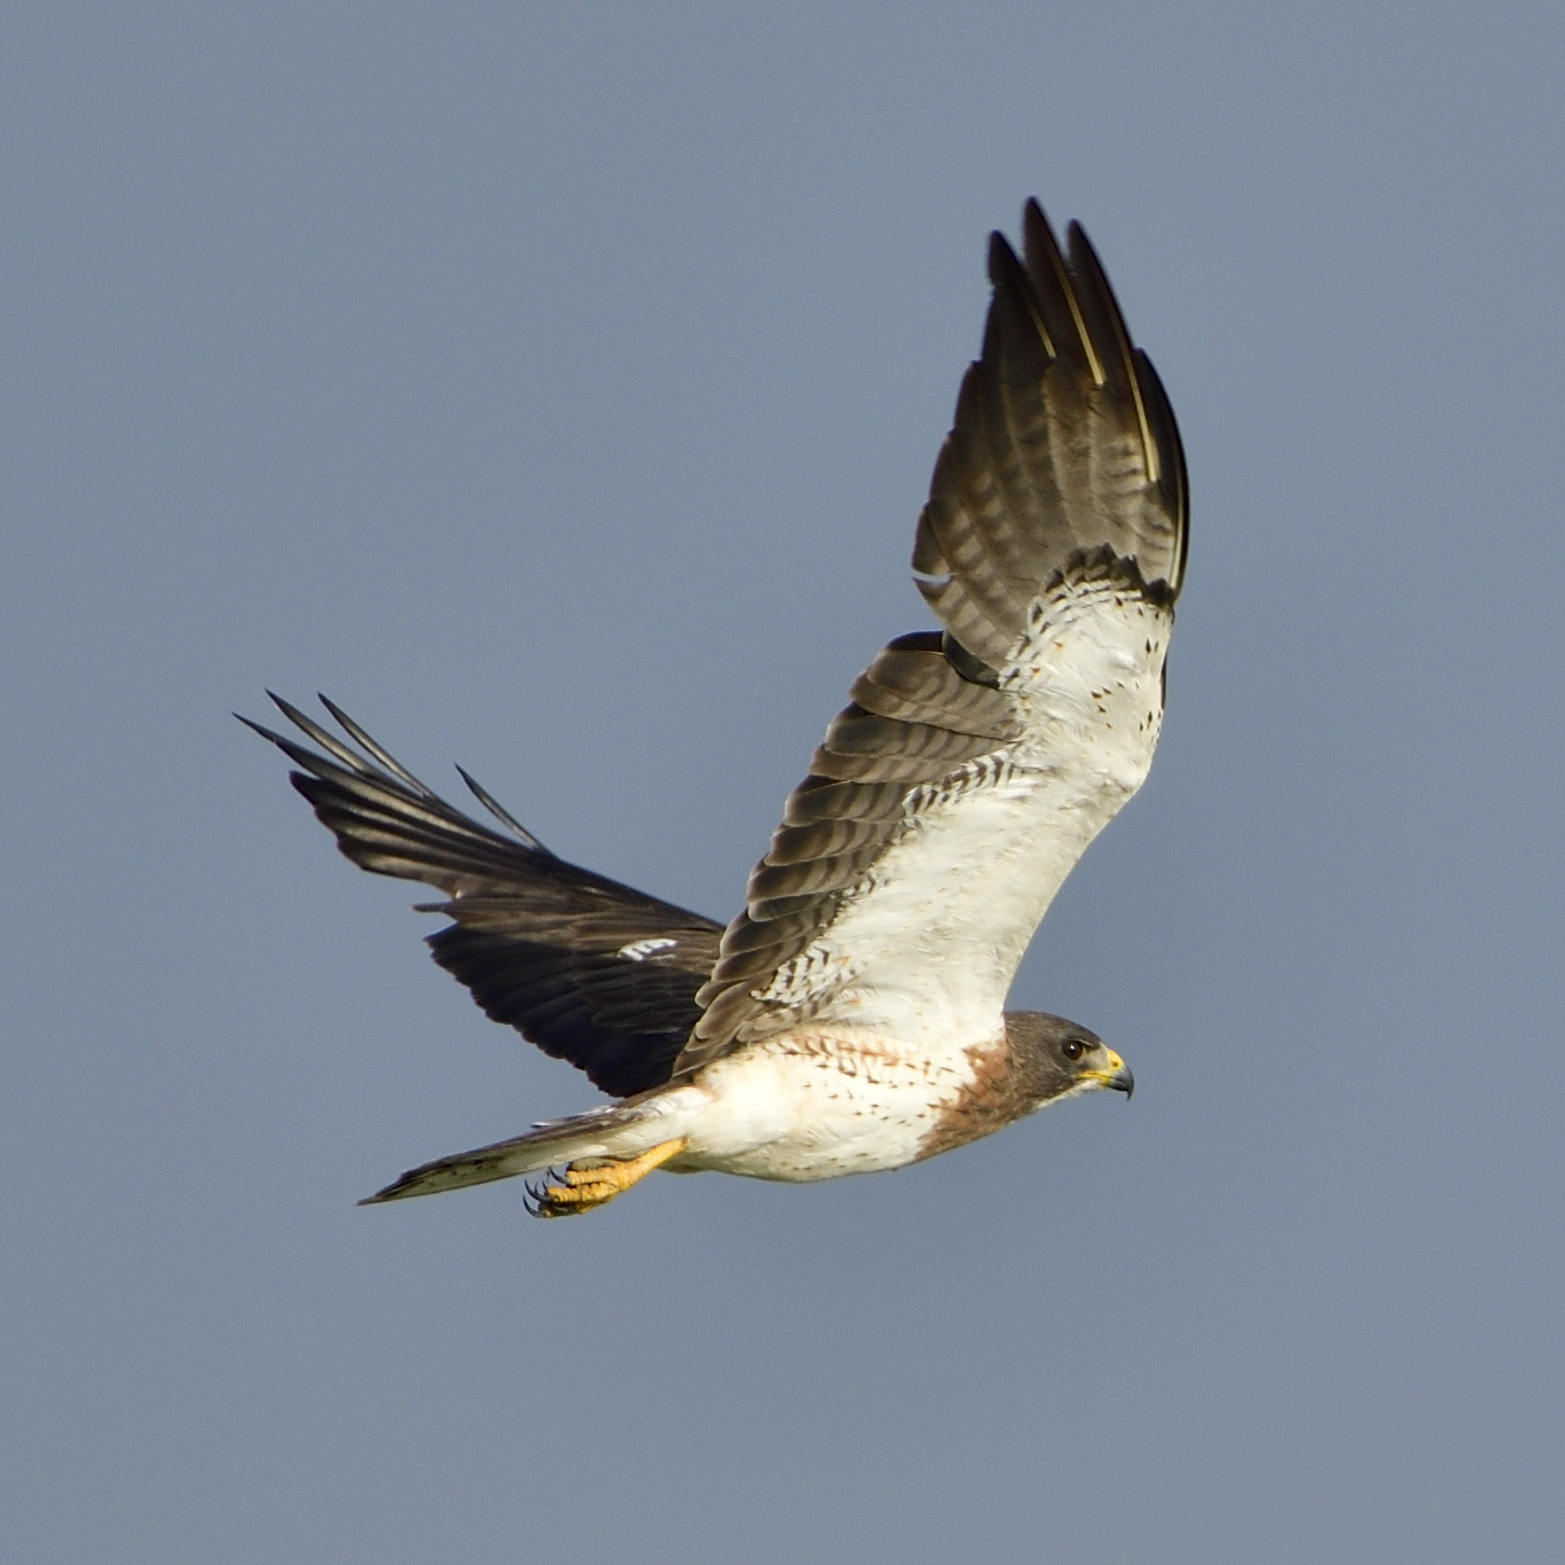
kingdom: Animalia
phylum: Chordata
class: Aves
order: Accipitriformes
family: Accipitridae
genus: Buteo
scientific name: Buteo swainsoni
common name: Swainson's hawk
